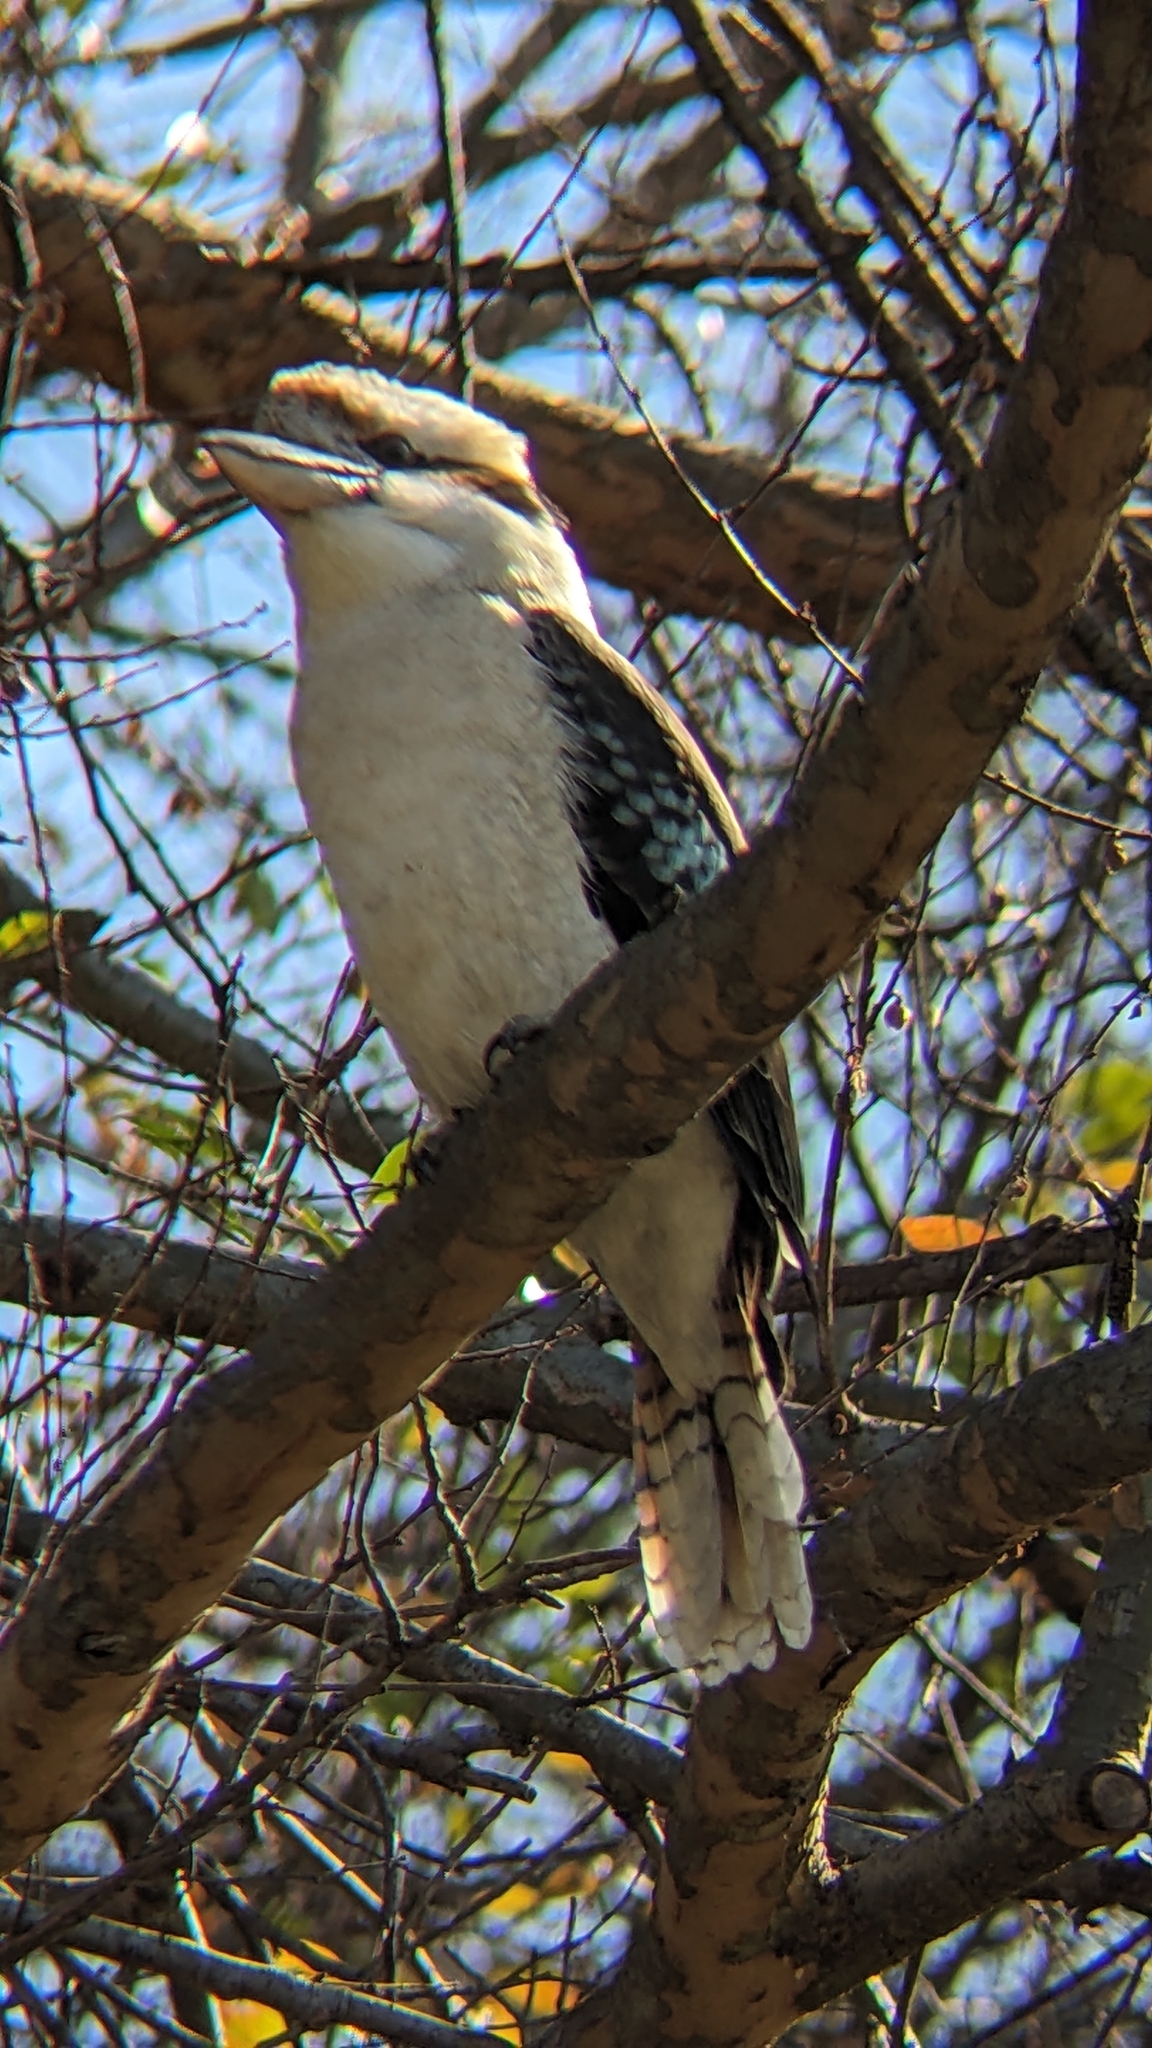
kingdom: Animalia
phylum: Chordata
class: Aves
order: Coraciiformes
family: Alcedinidae
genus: Dacelo
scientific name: Dacelo novaeguineae
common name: Laughing kookaburra
